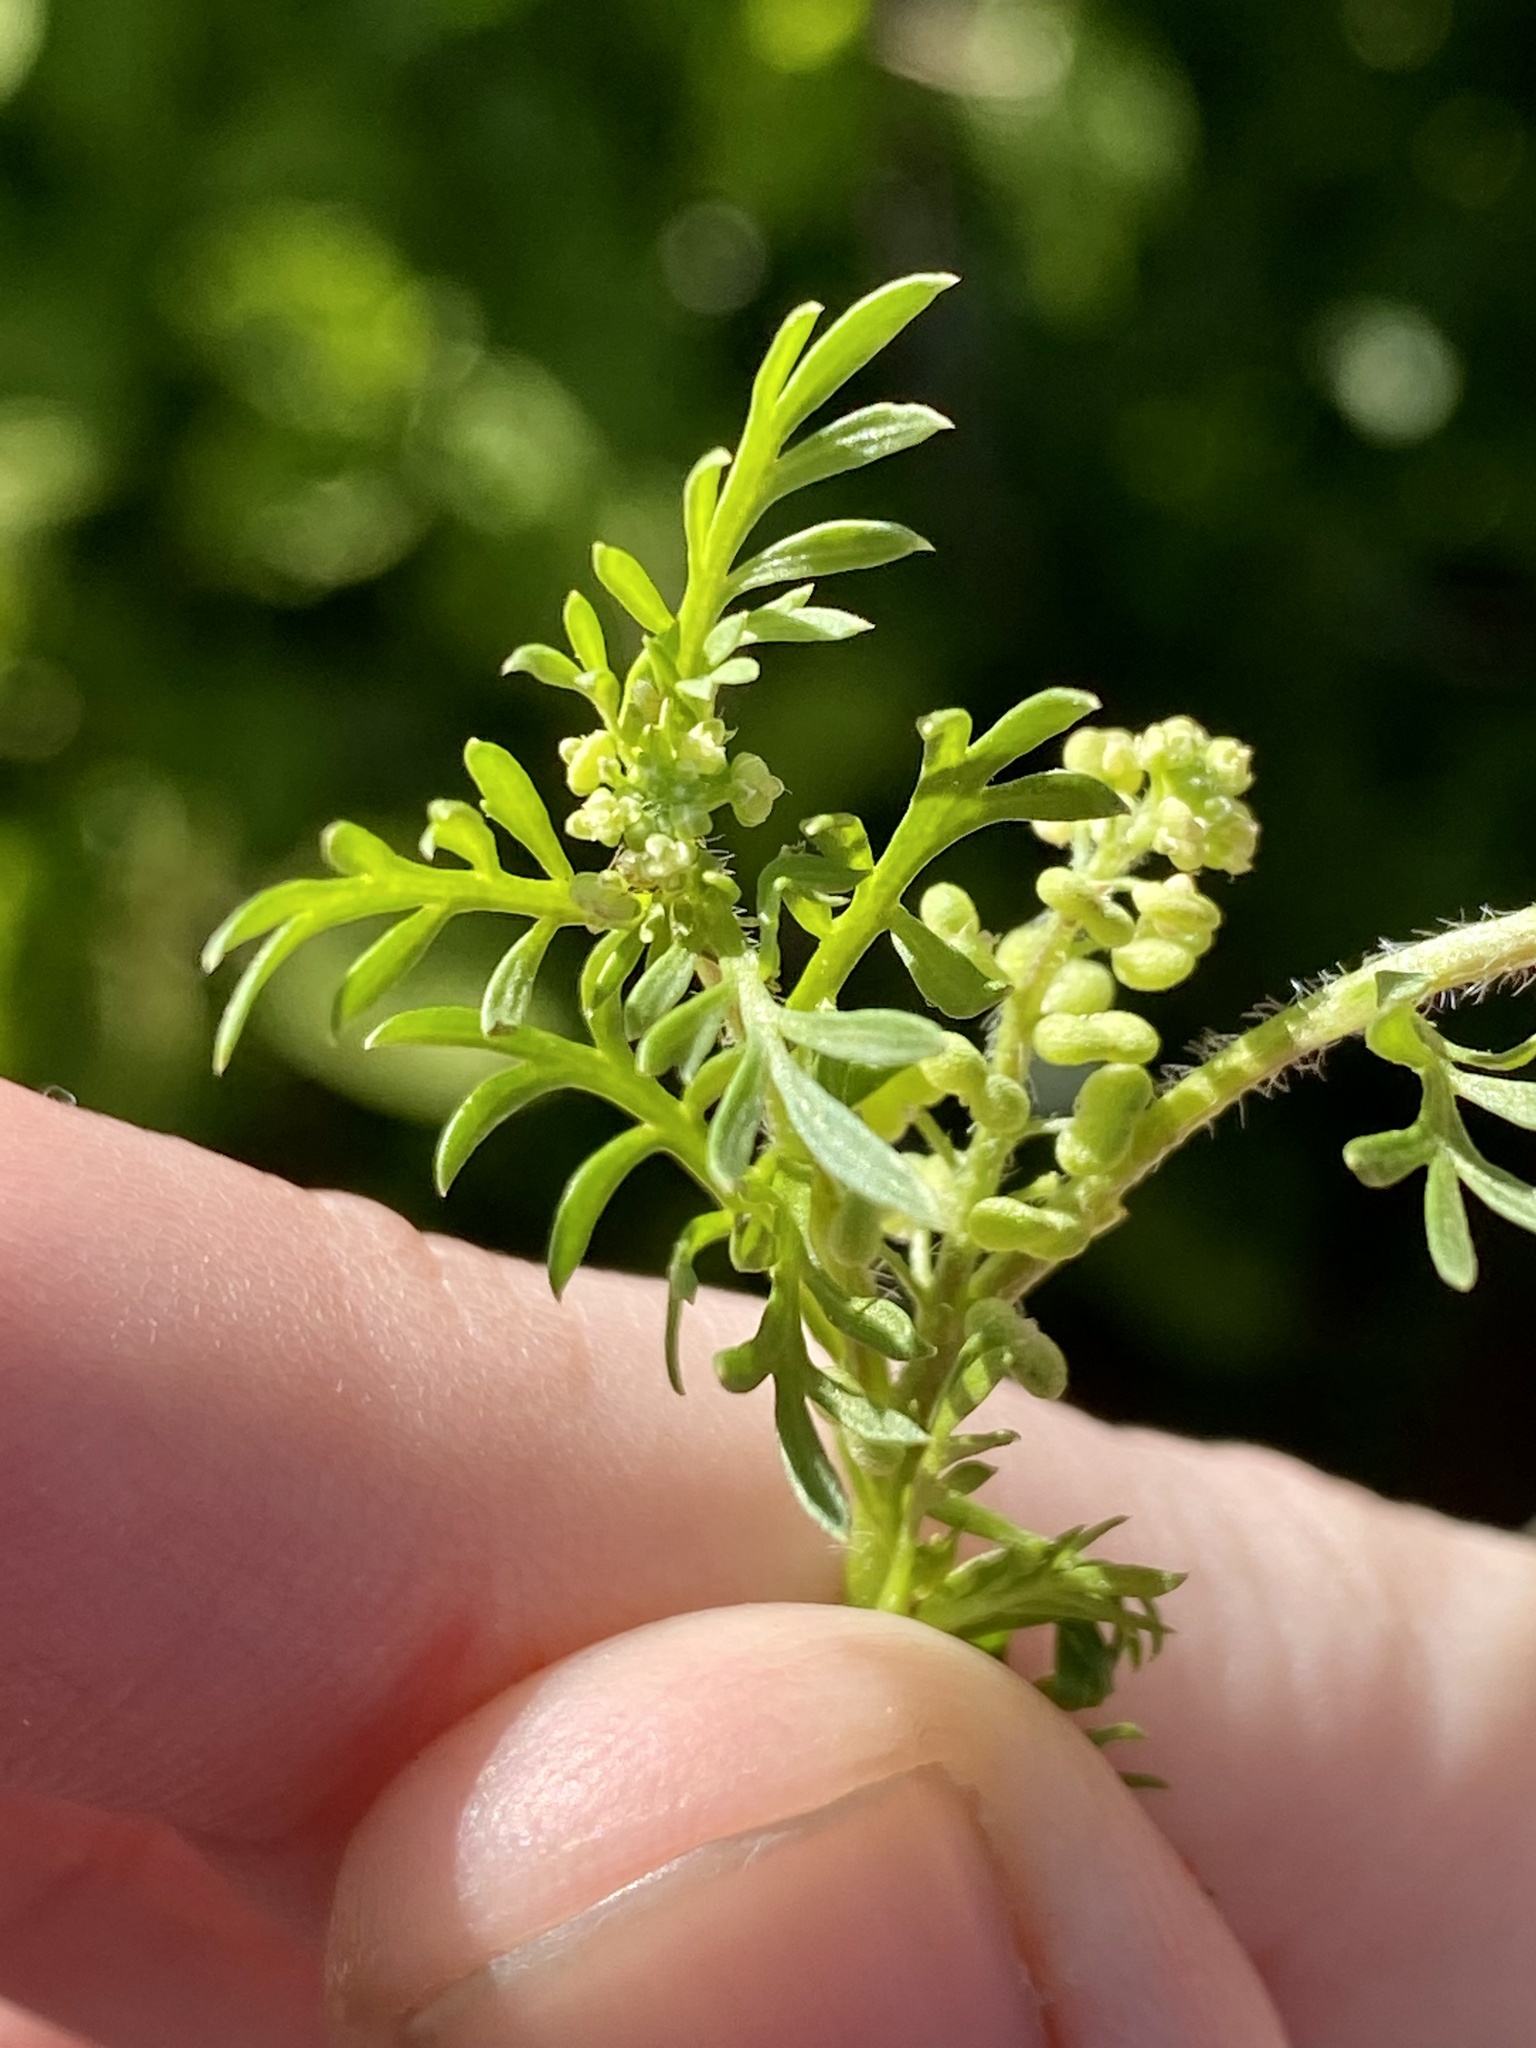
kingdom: Plantae
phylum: Tracheophyta
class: Magnoliopsida
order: Brassicales
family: Brassicaceae
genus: Lepidium
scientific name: Lepidium didymum
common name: Lesser swinecress
